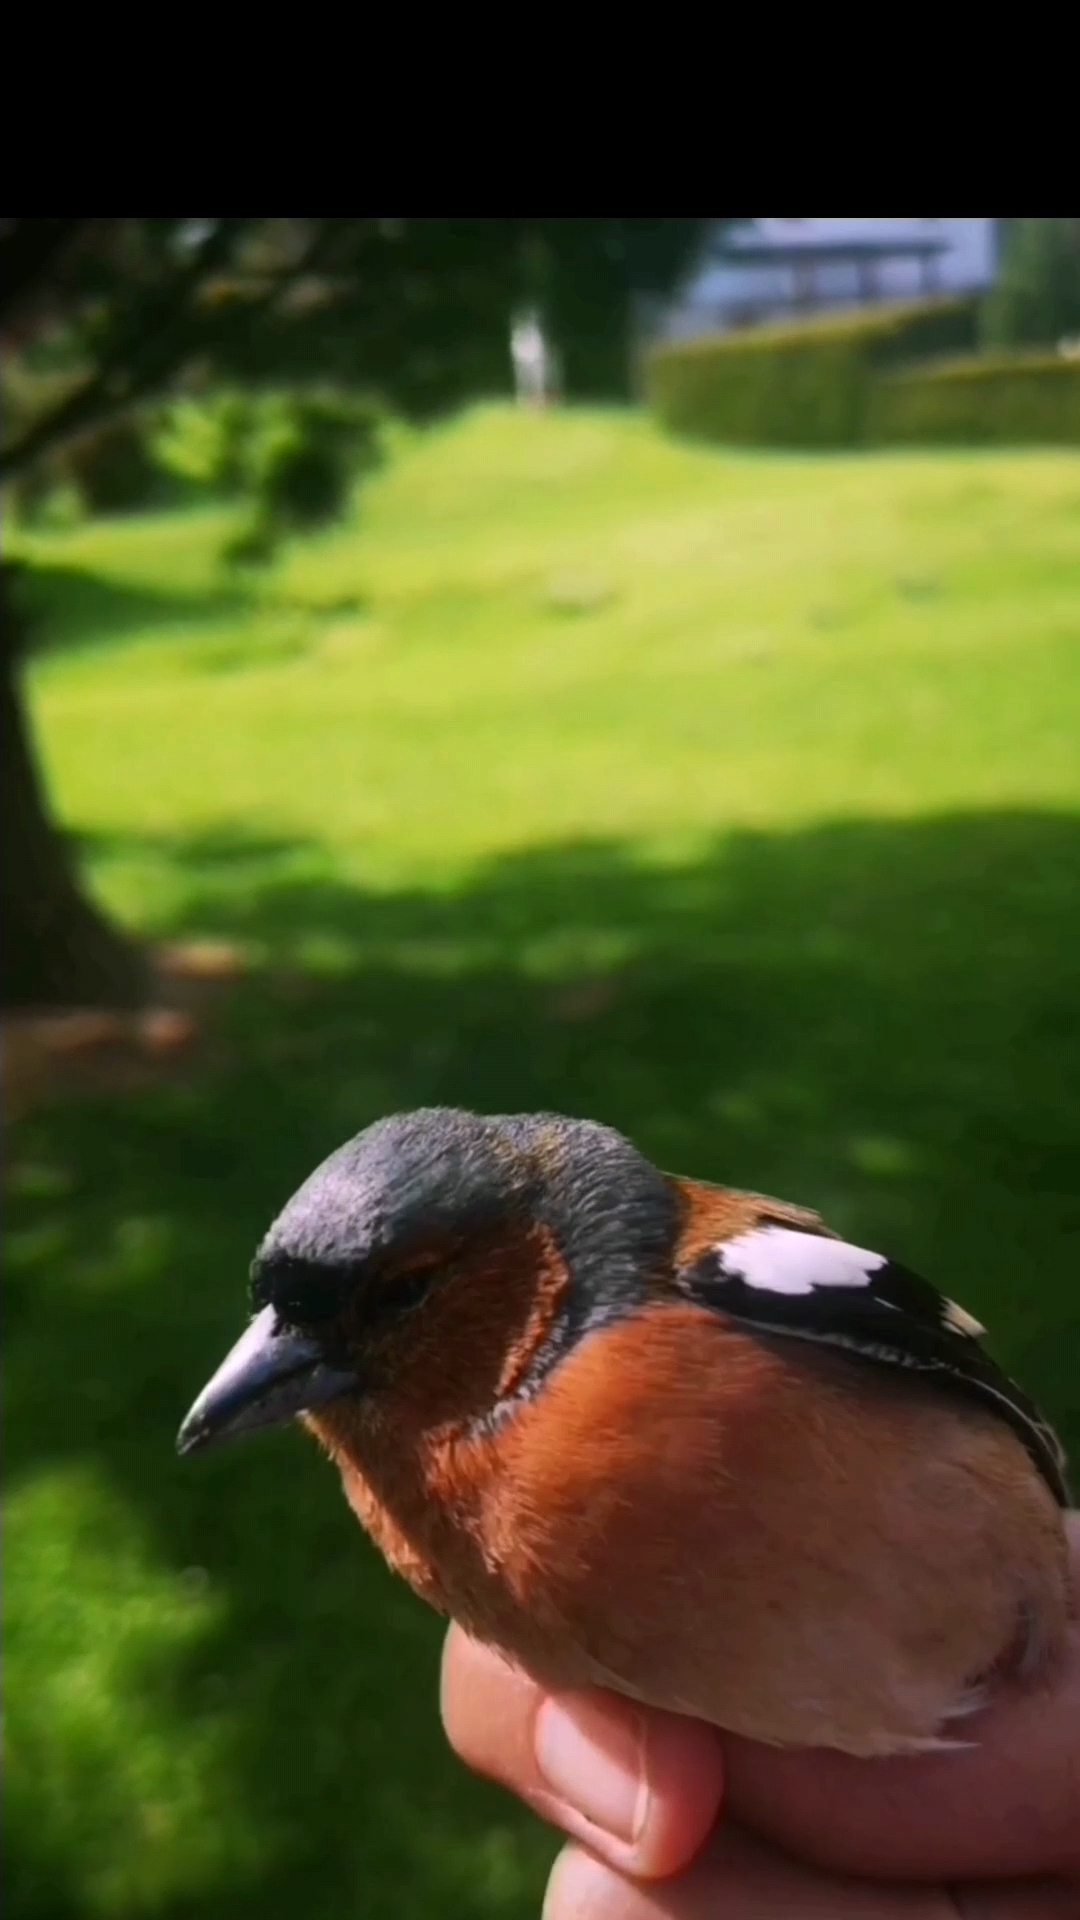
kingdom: Animalia
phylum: Chordata
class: Aves
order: Passeriformes
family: Fringillidae
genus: Fringilla
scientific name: Fringilla coelebs
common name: Common chaffinch
